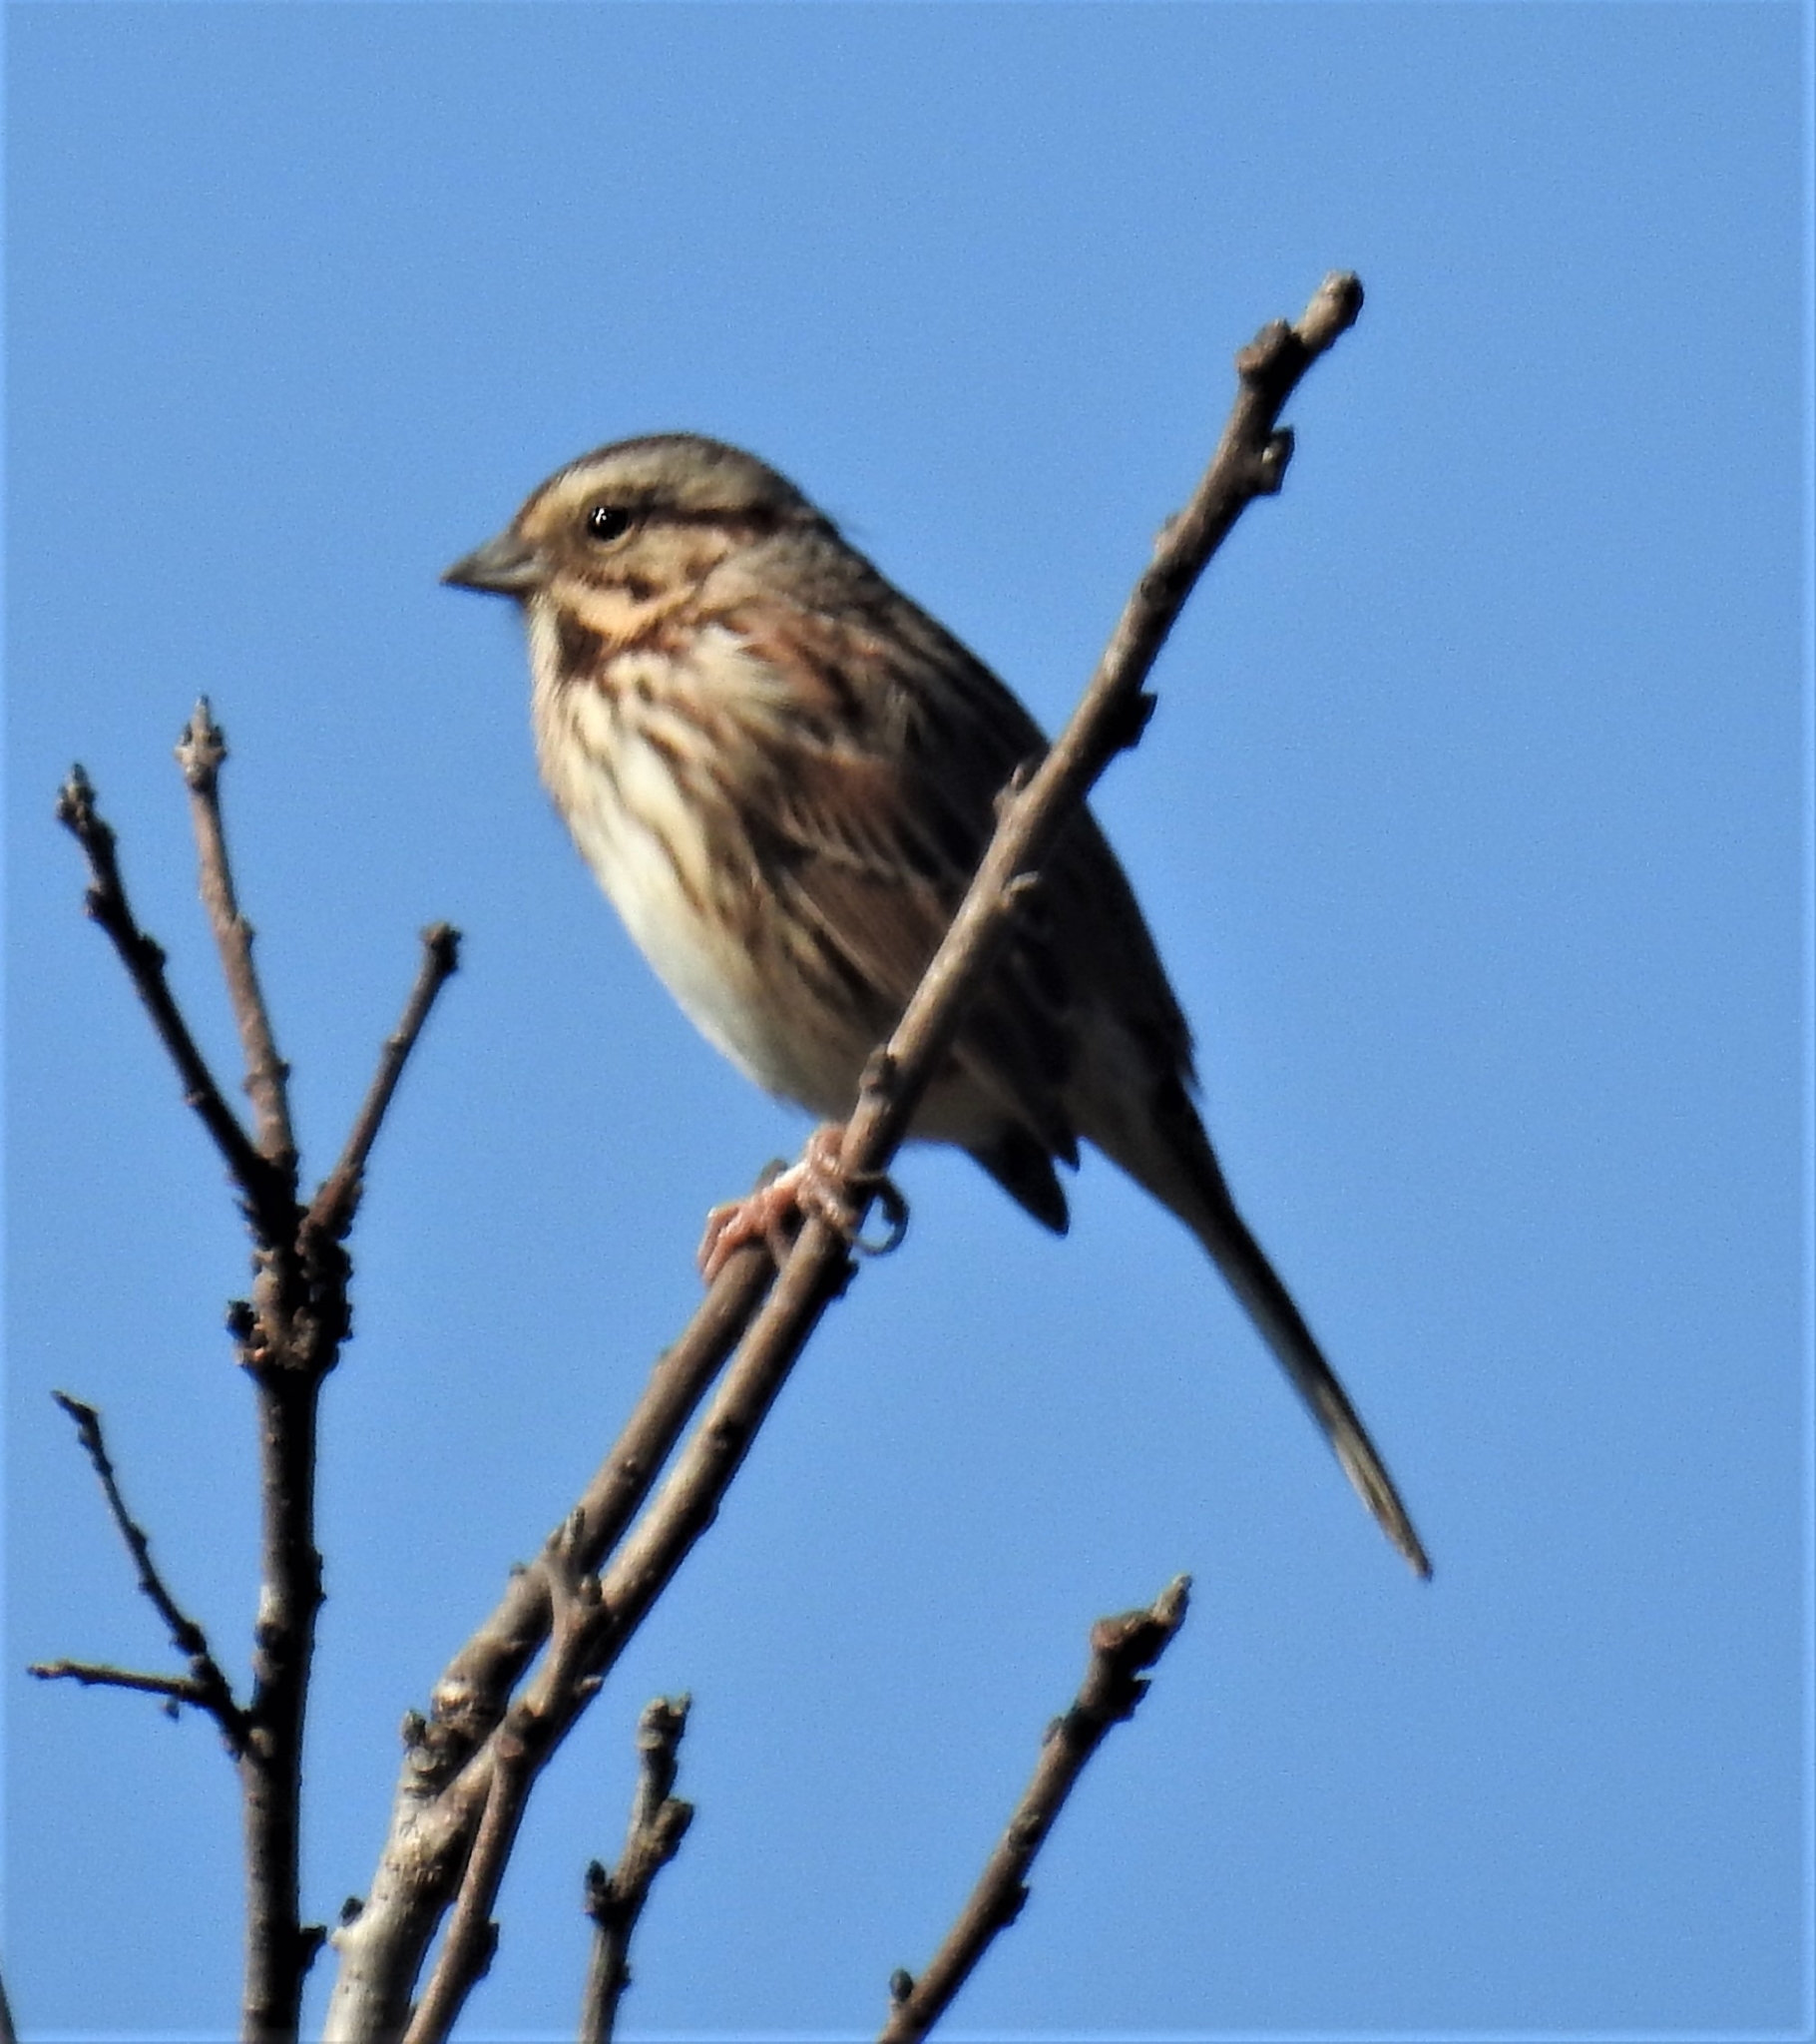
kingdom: Animalia
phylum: Chordata
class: Aves
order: Passeriformes
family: Passerellidae
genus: Melospiza
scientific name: Melospiza melodia
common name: Song sparrow
